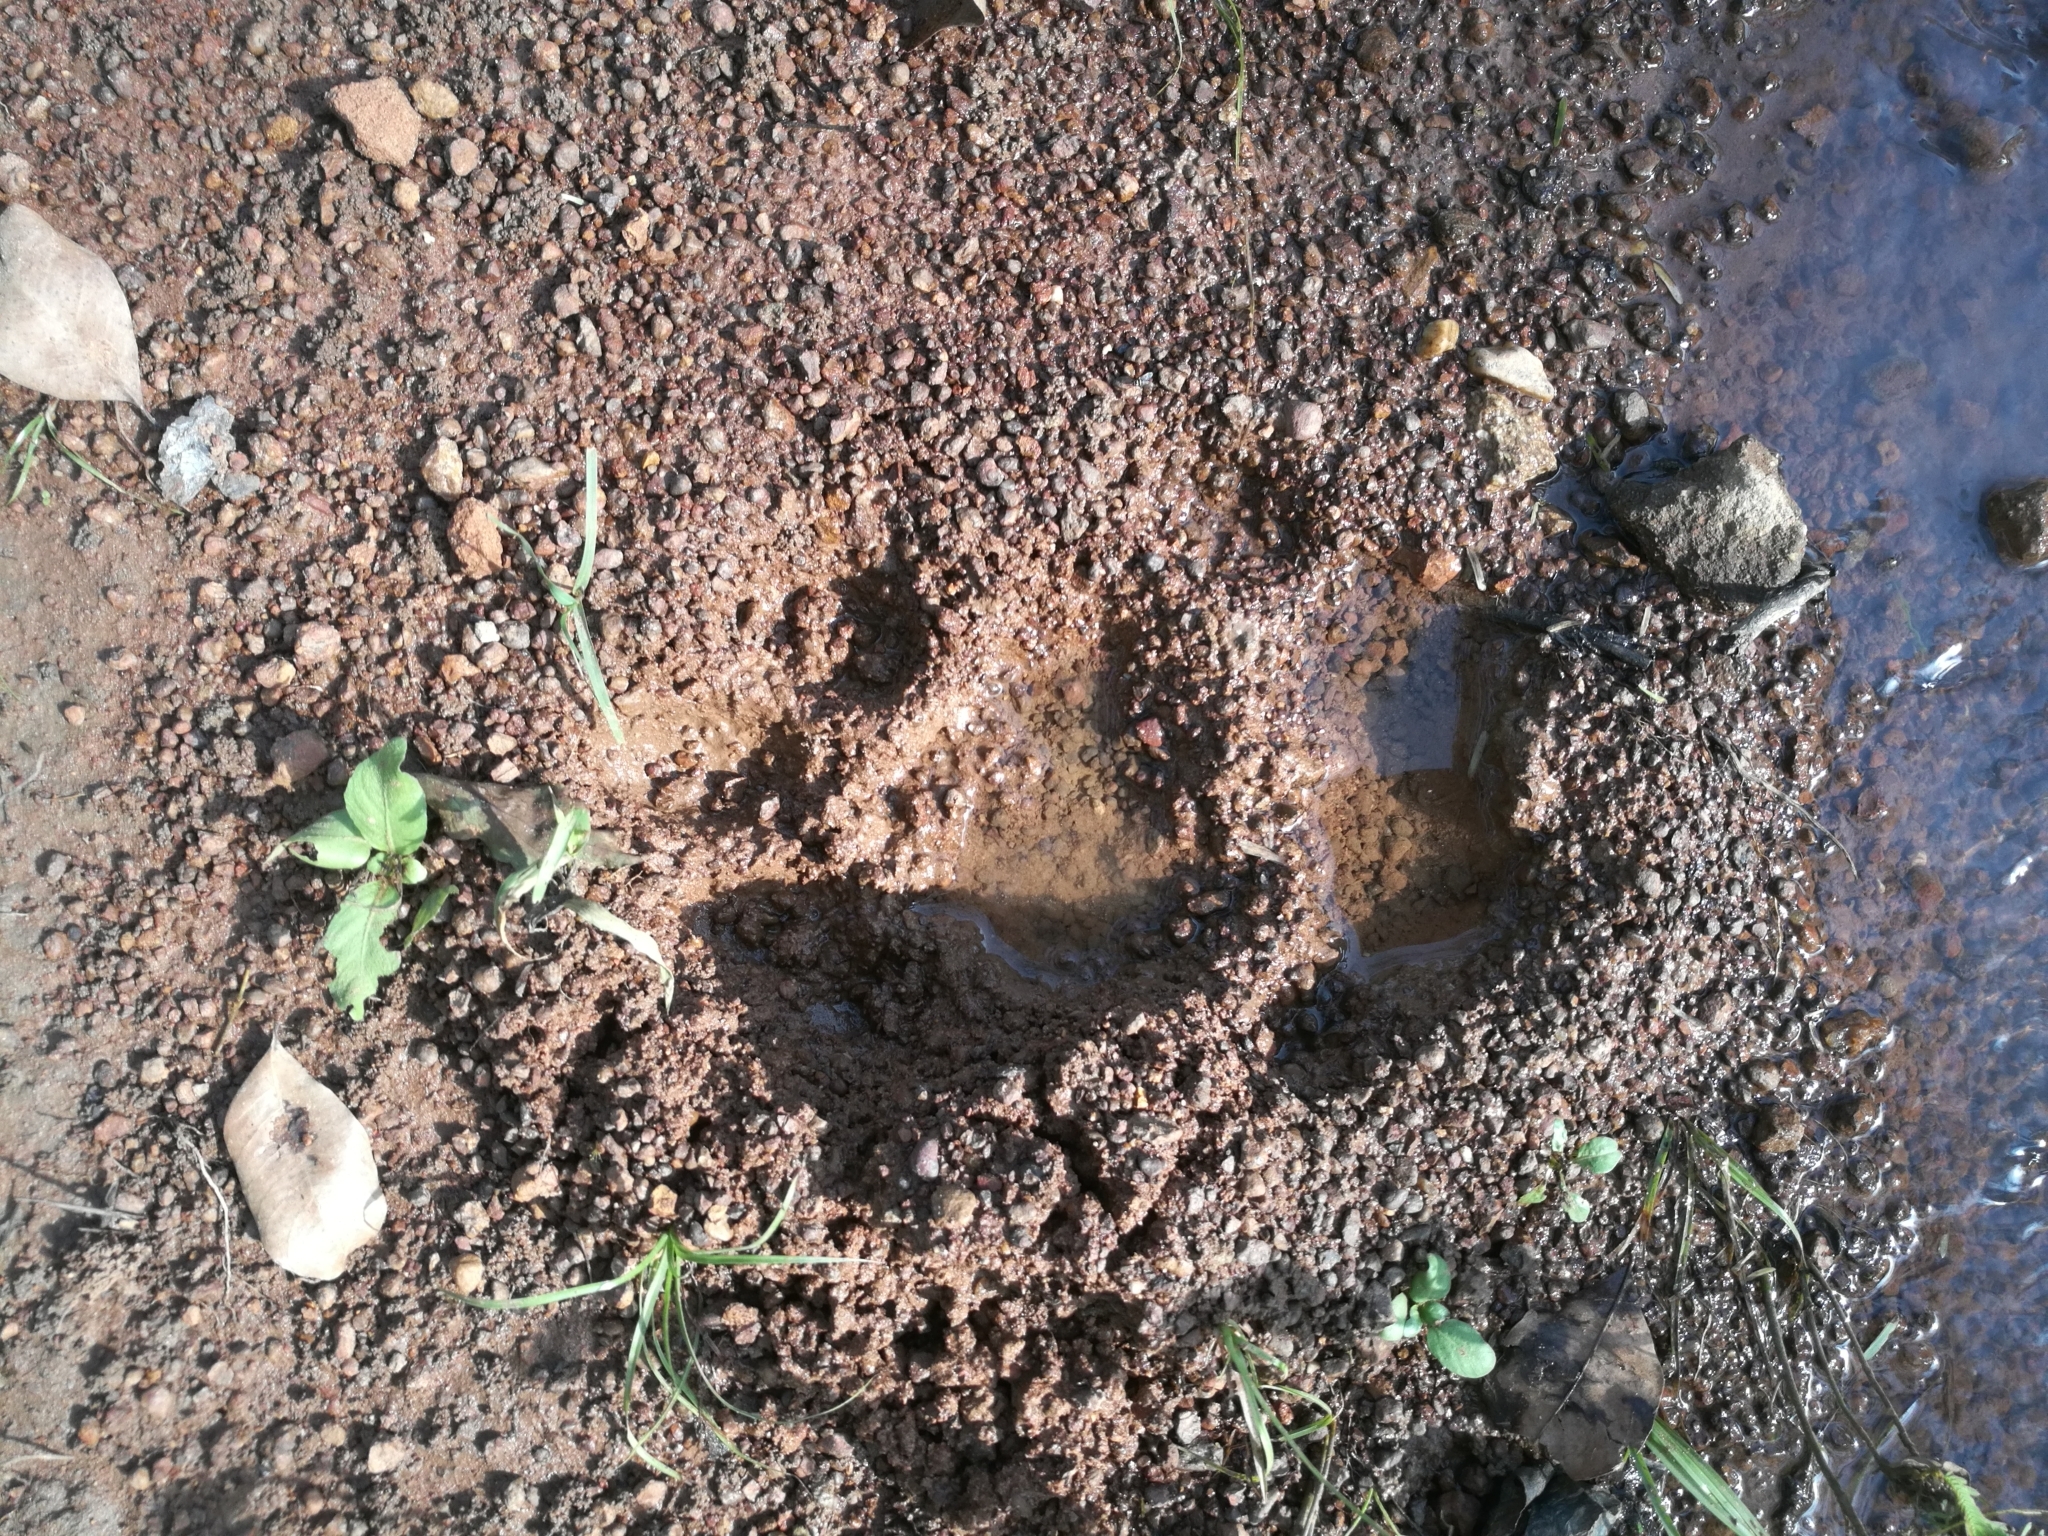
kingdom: Animalia
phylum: Chordata
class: Mammalia
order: Carnivora
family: Felidae
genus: Panthera
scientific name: Panthera leo
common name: Lion
